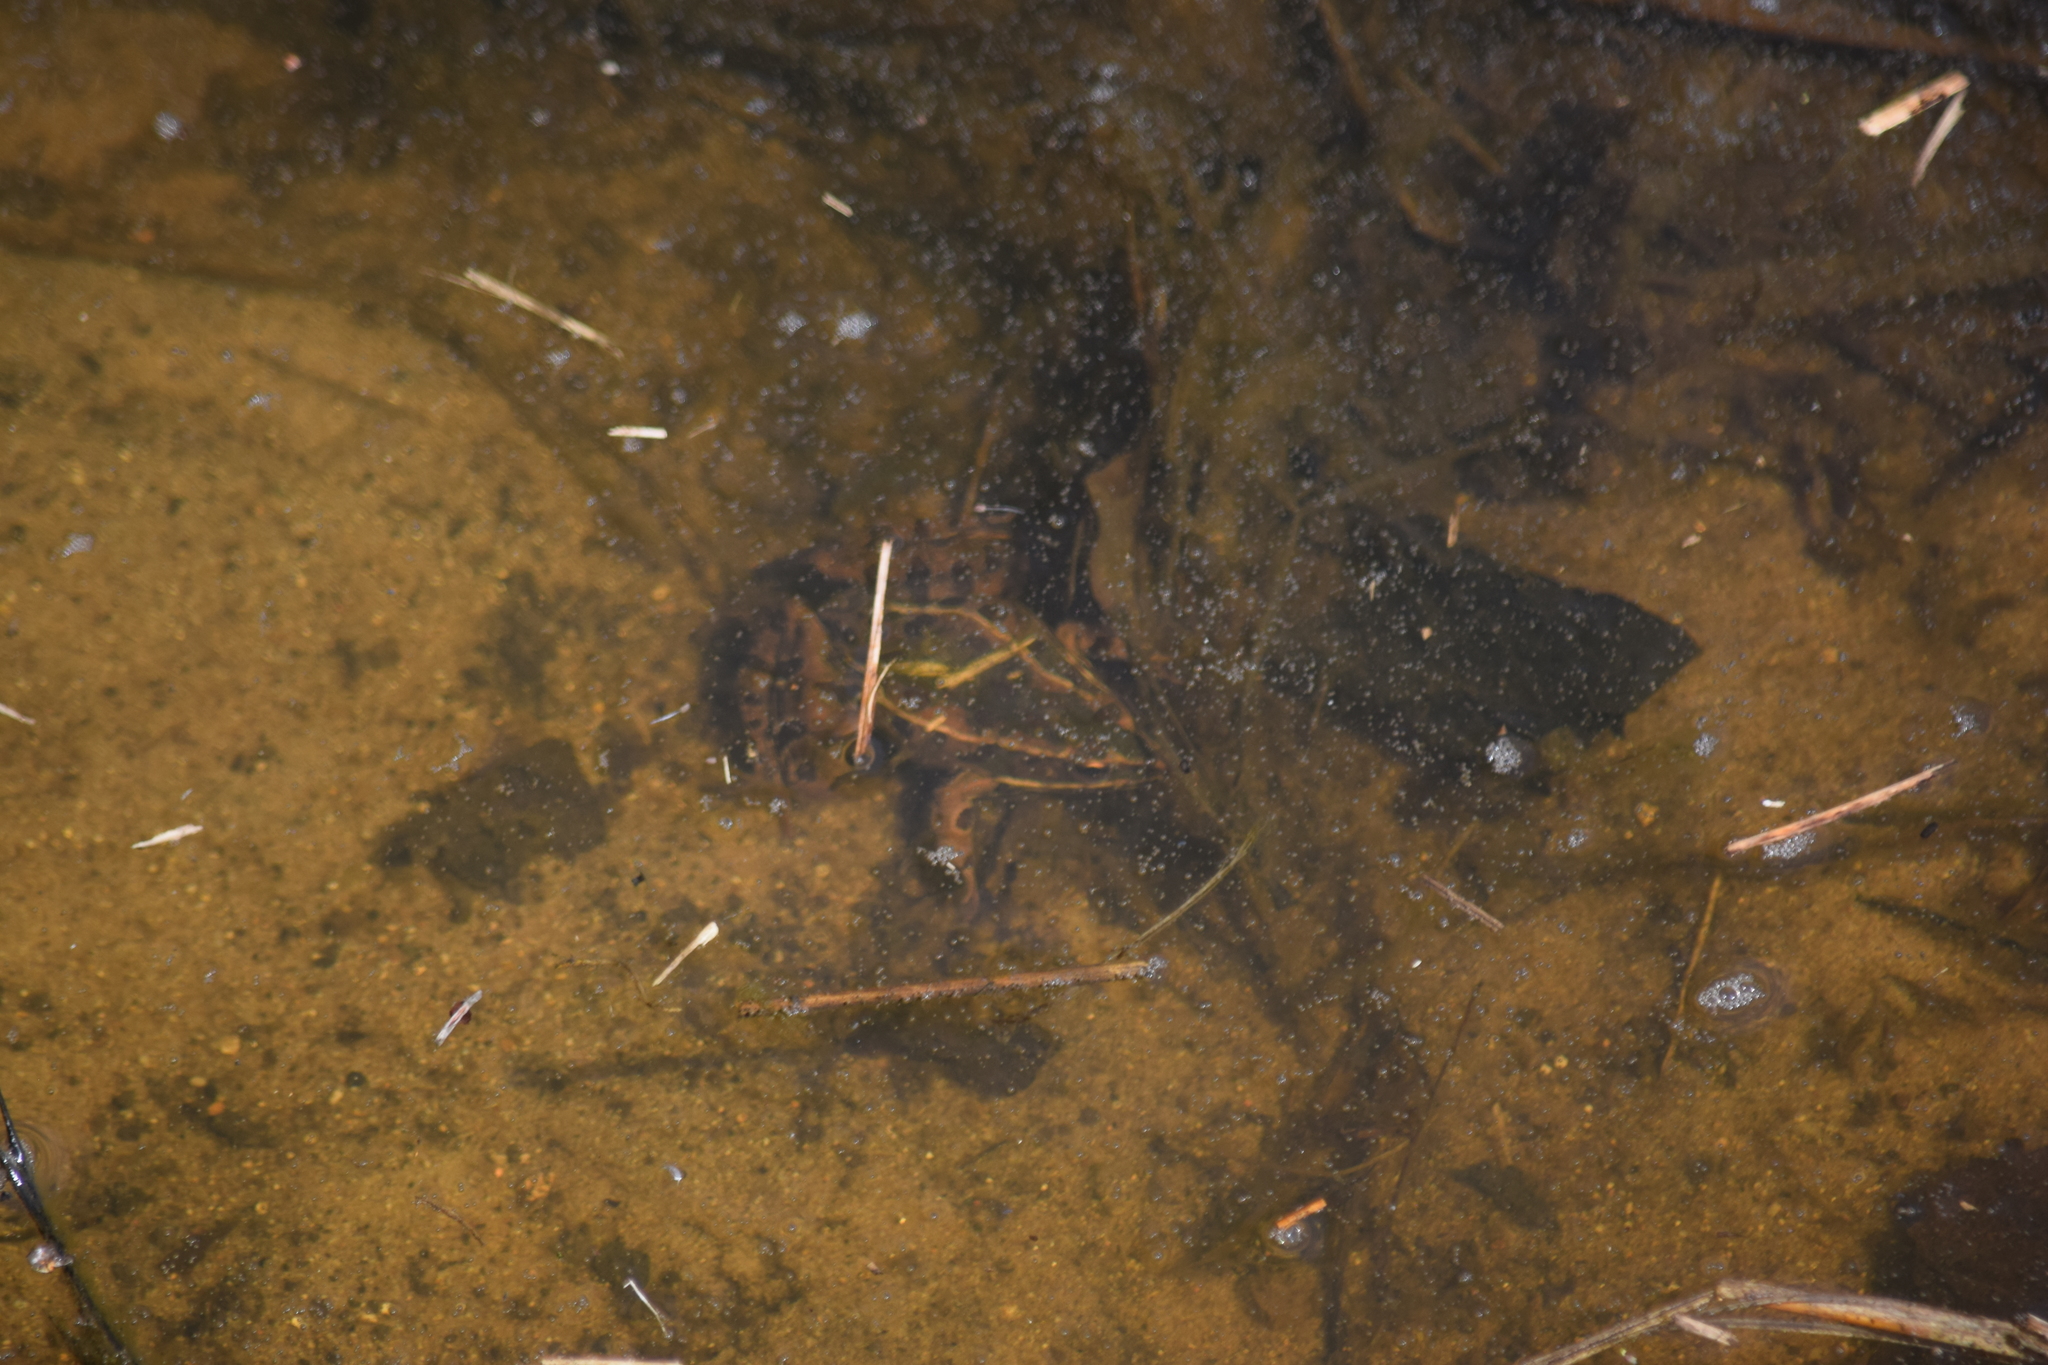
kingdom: Animalia
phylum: Chordata
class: Amphibia
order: Anura
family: Ranidae
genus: Lithobates
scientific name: Lithobates sphenocephalus
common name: Southern leopard frog
